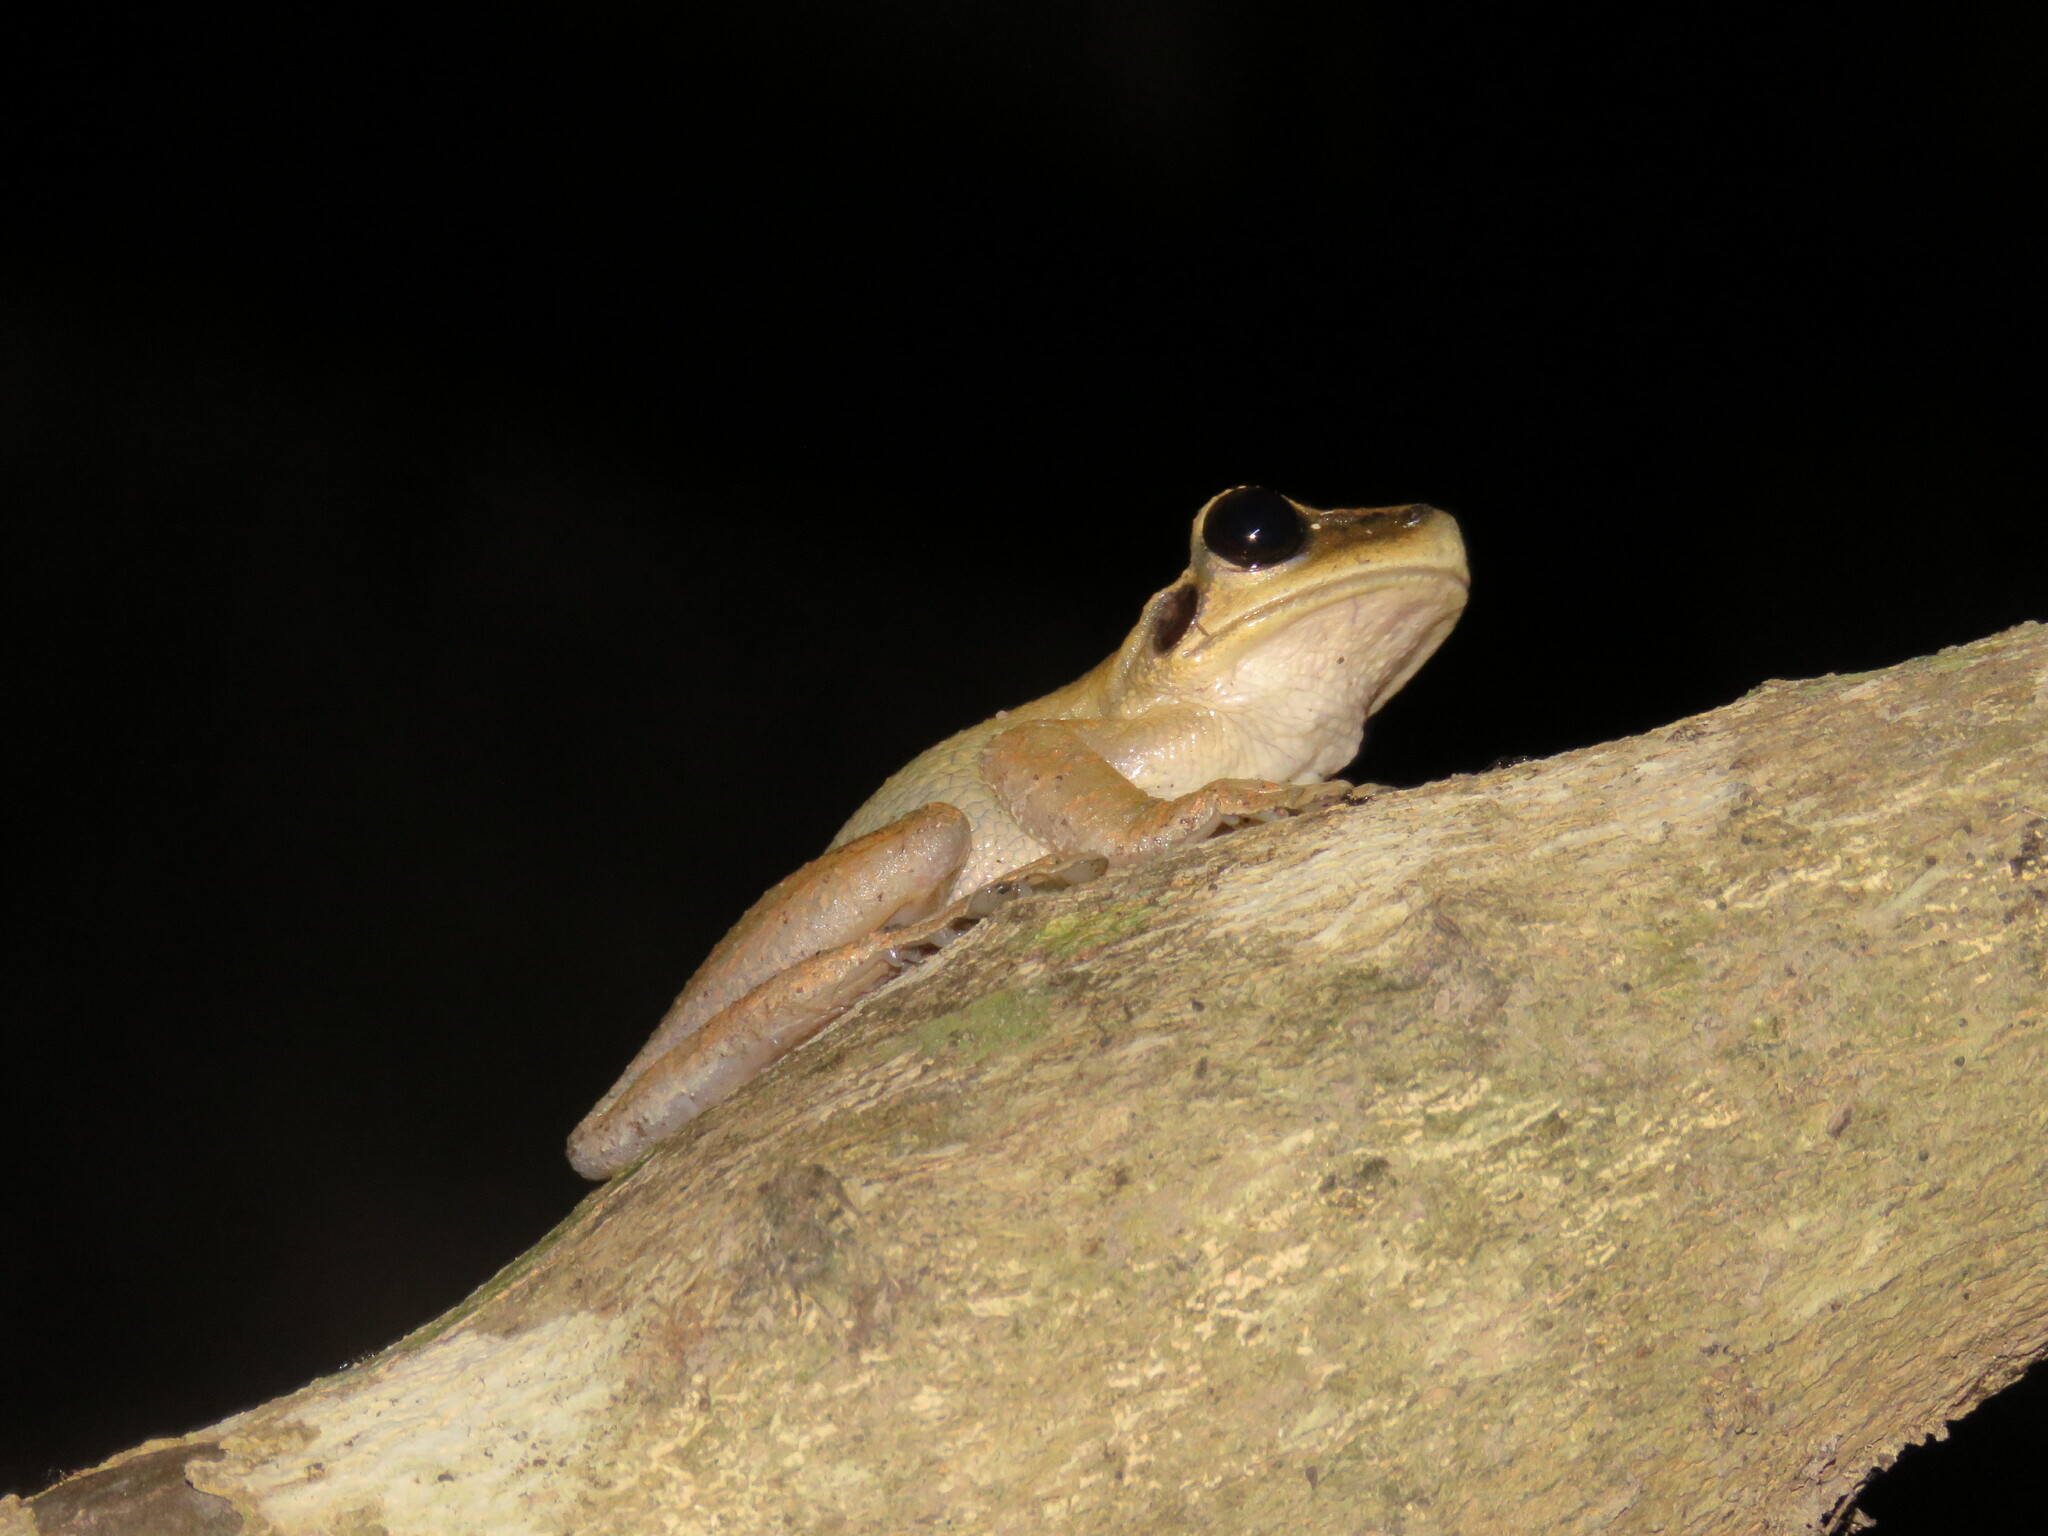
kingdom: Animalia
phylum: Chordata
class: Amphibia
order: Anura
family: Hylidae
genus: Osteocephalus
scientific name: Osteocephalus castaneicola
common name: Chestnut's slender-legged treefrog
